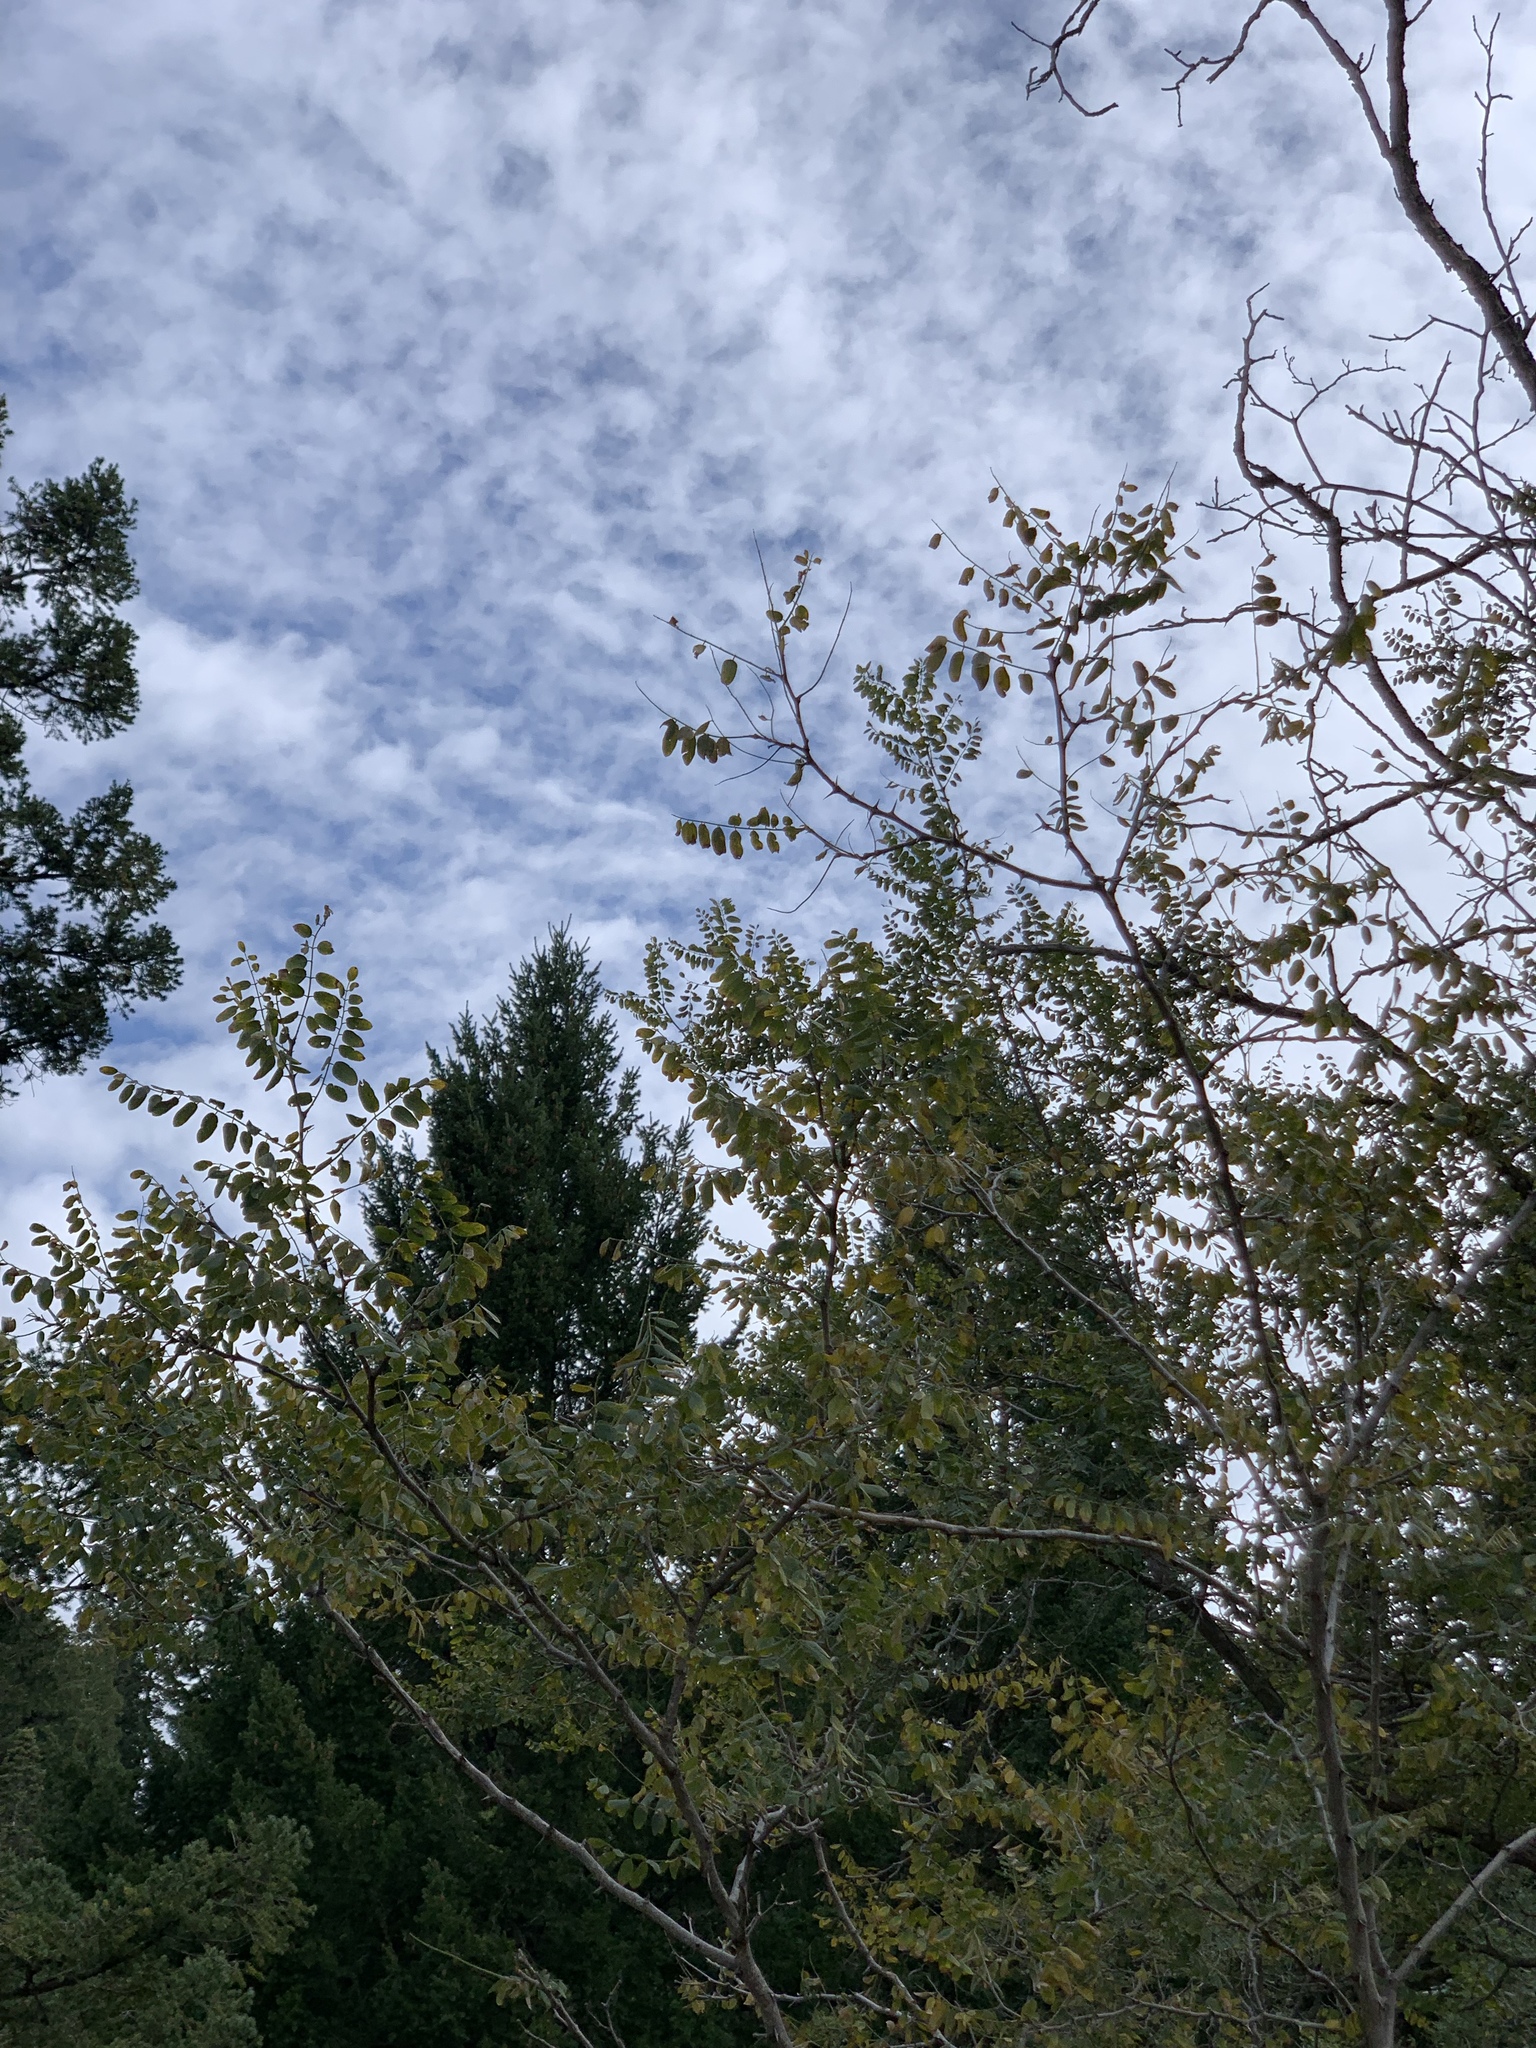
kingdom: Plantae
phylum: Tracheophyta
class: Magnoliopsida
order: Fabales
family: Fabaceae
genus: Robinia
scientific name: Robinia neomexicana
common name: New mexico locust
